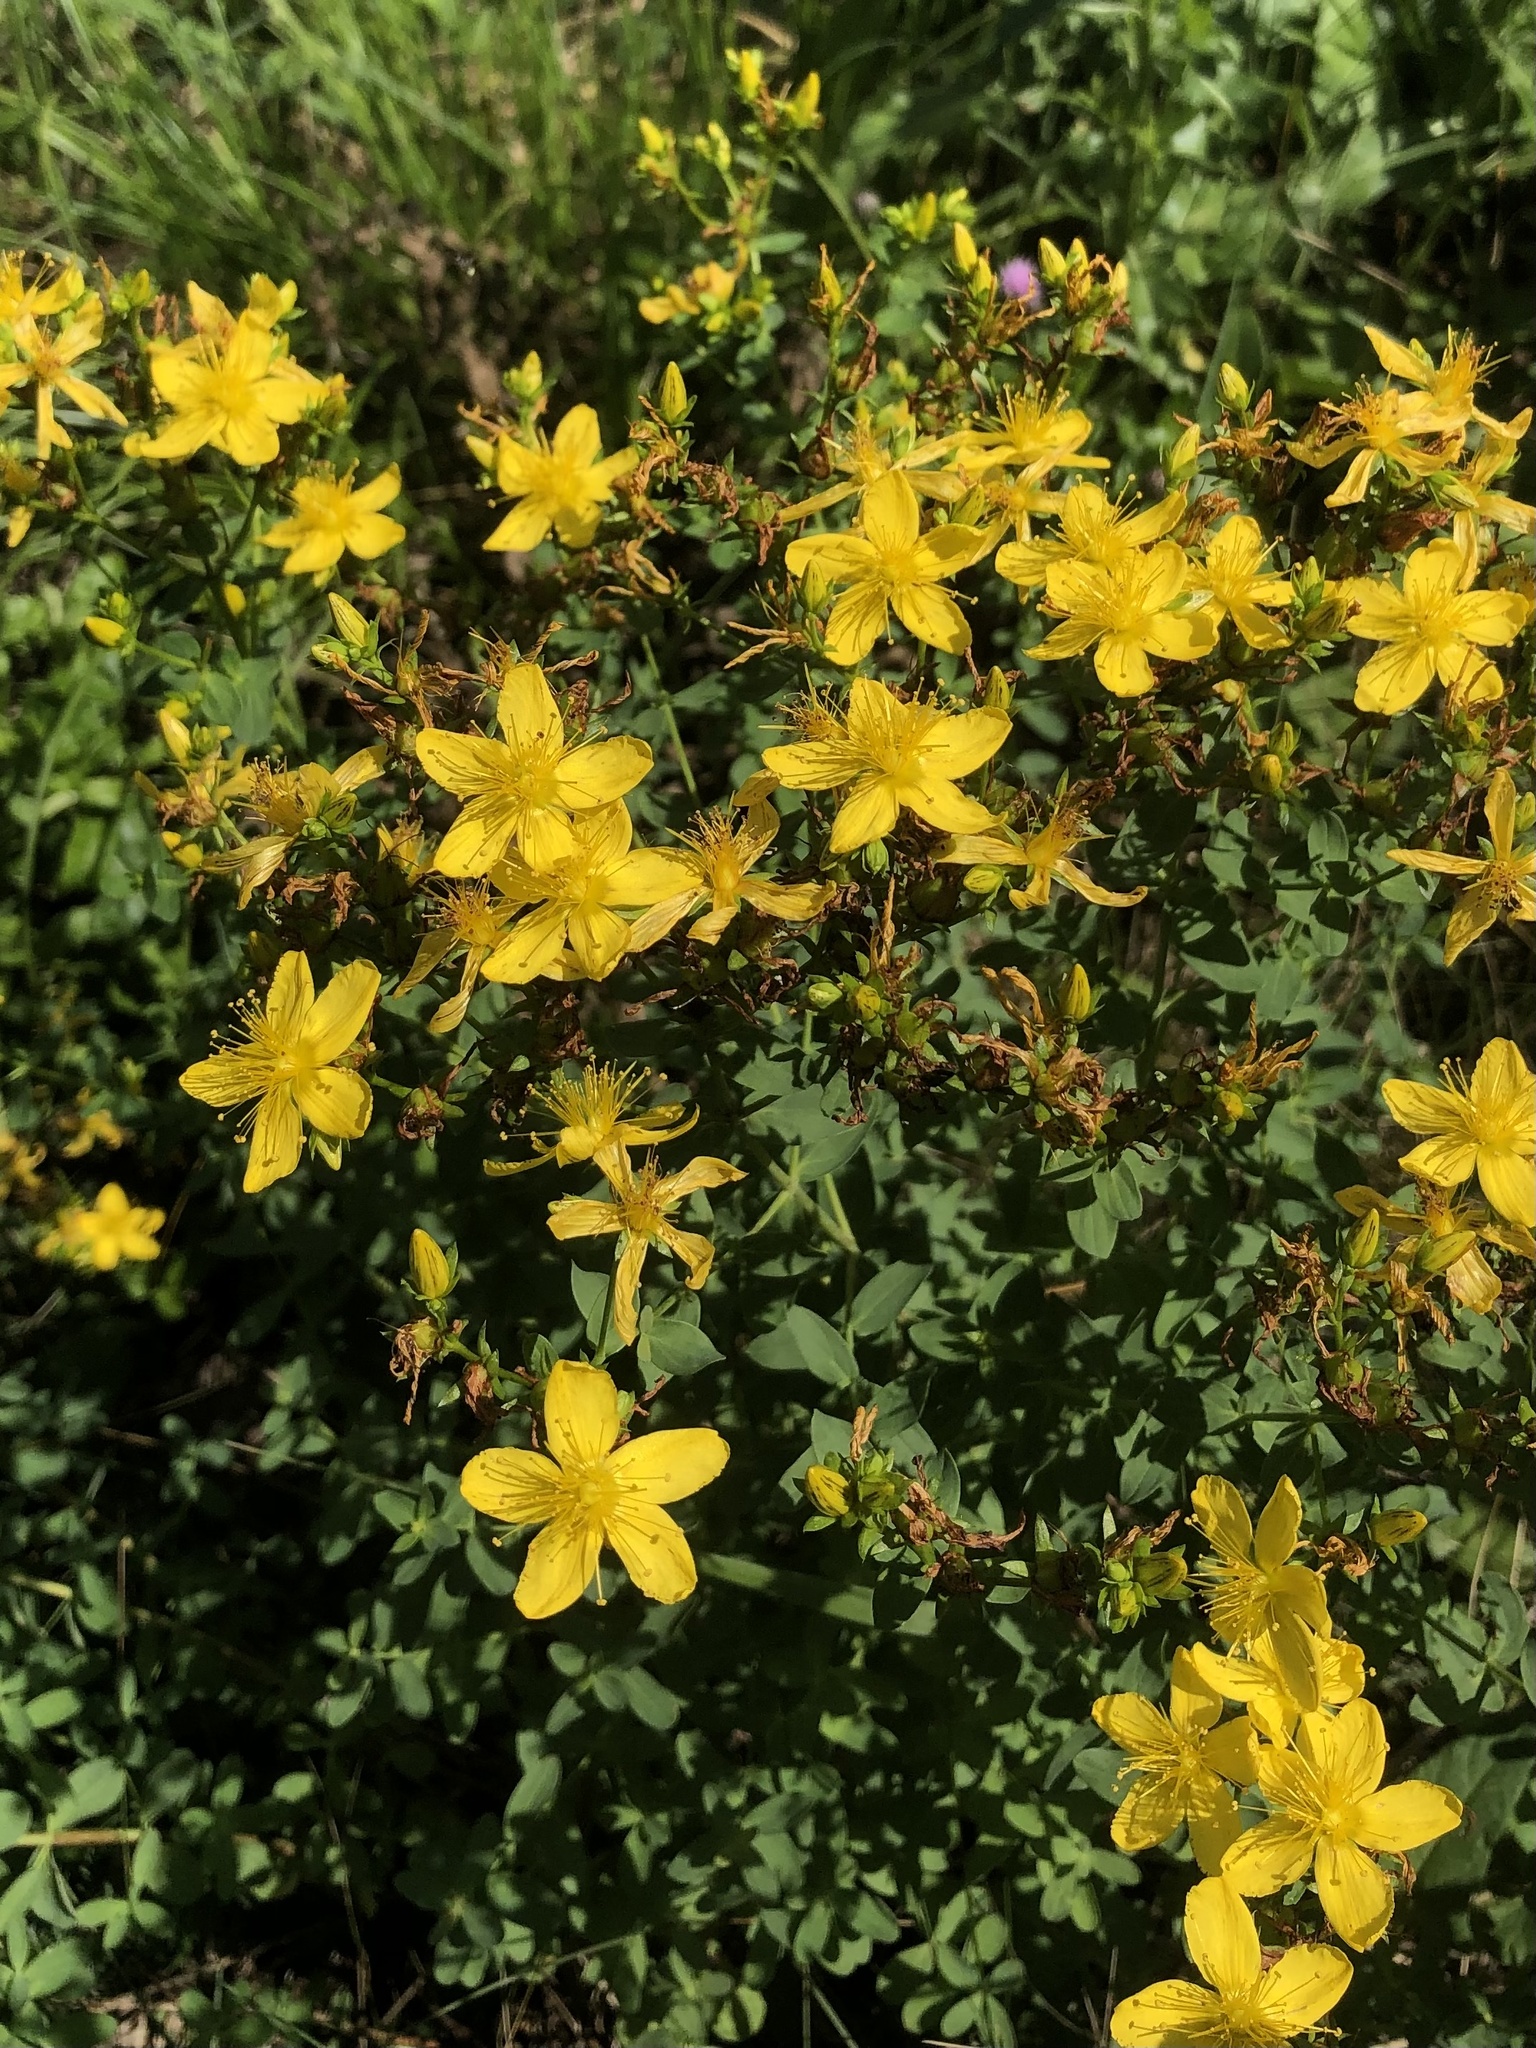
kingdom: Plantae
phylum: Tracheophyta
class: Magnoliopsida
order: Malpighiales
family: Hypericaceae
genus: Hypericum
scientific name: Hypericum perforatum
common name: Common st. johnswort
